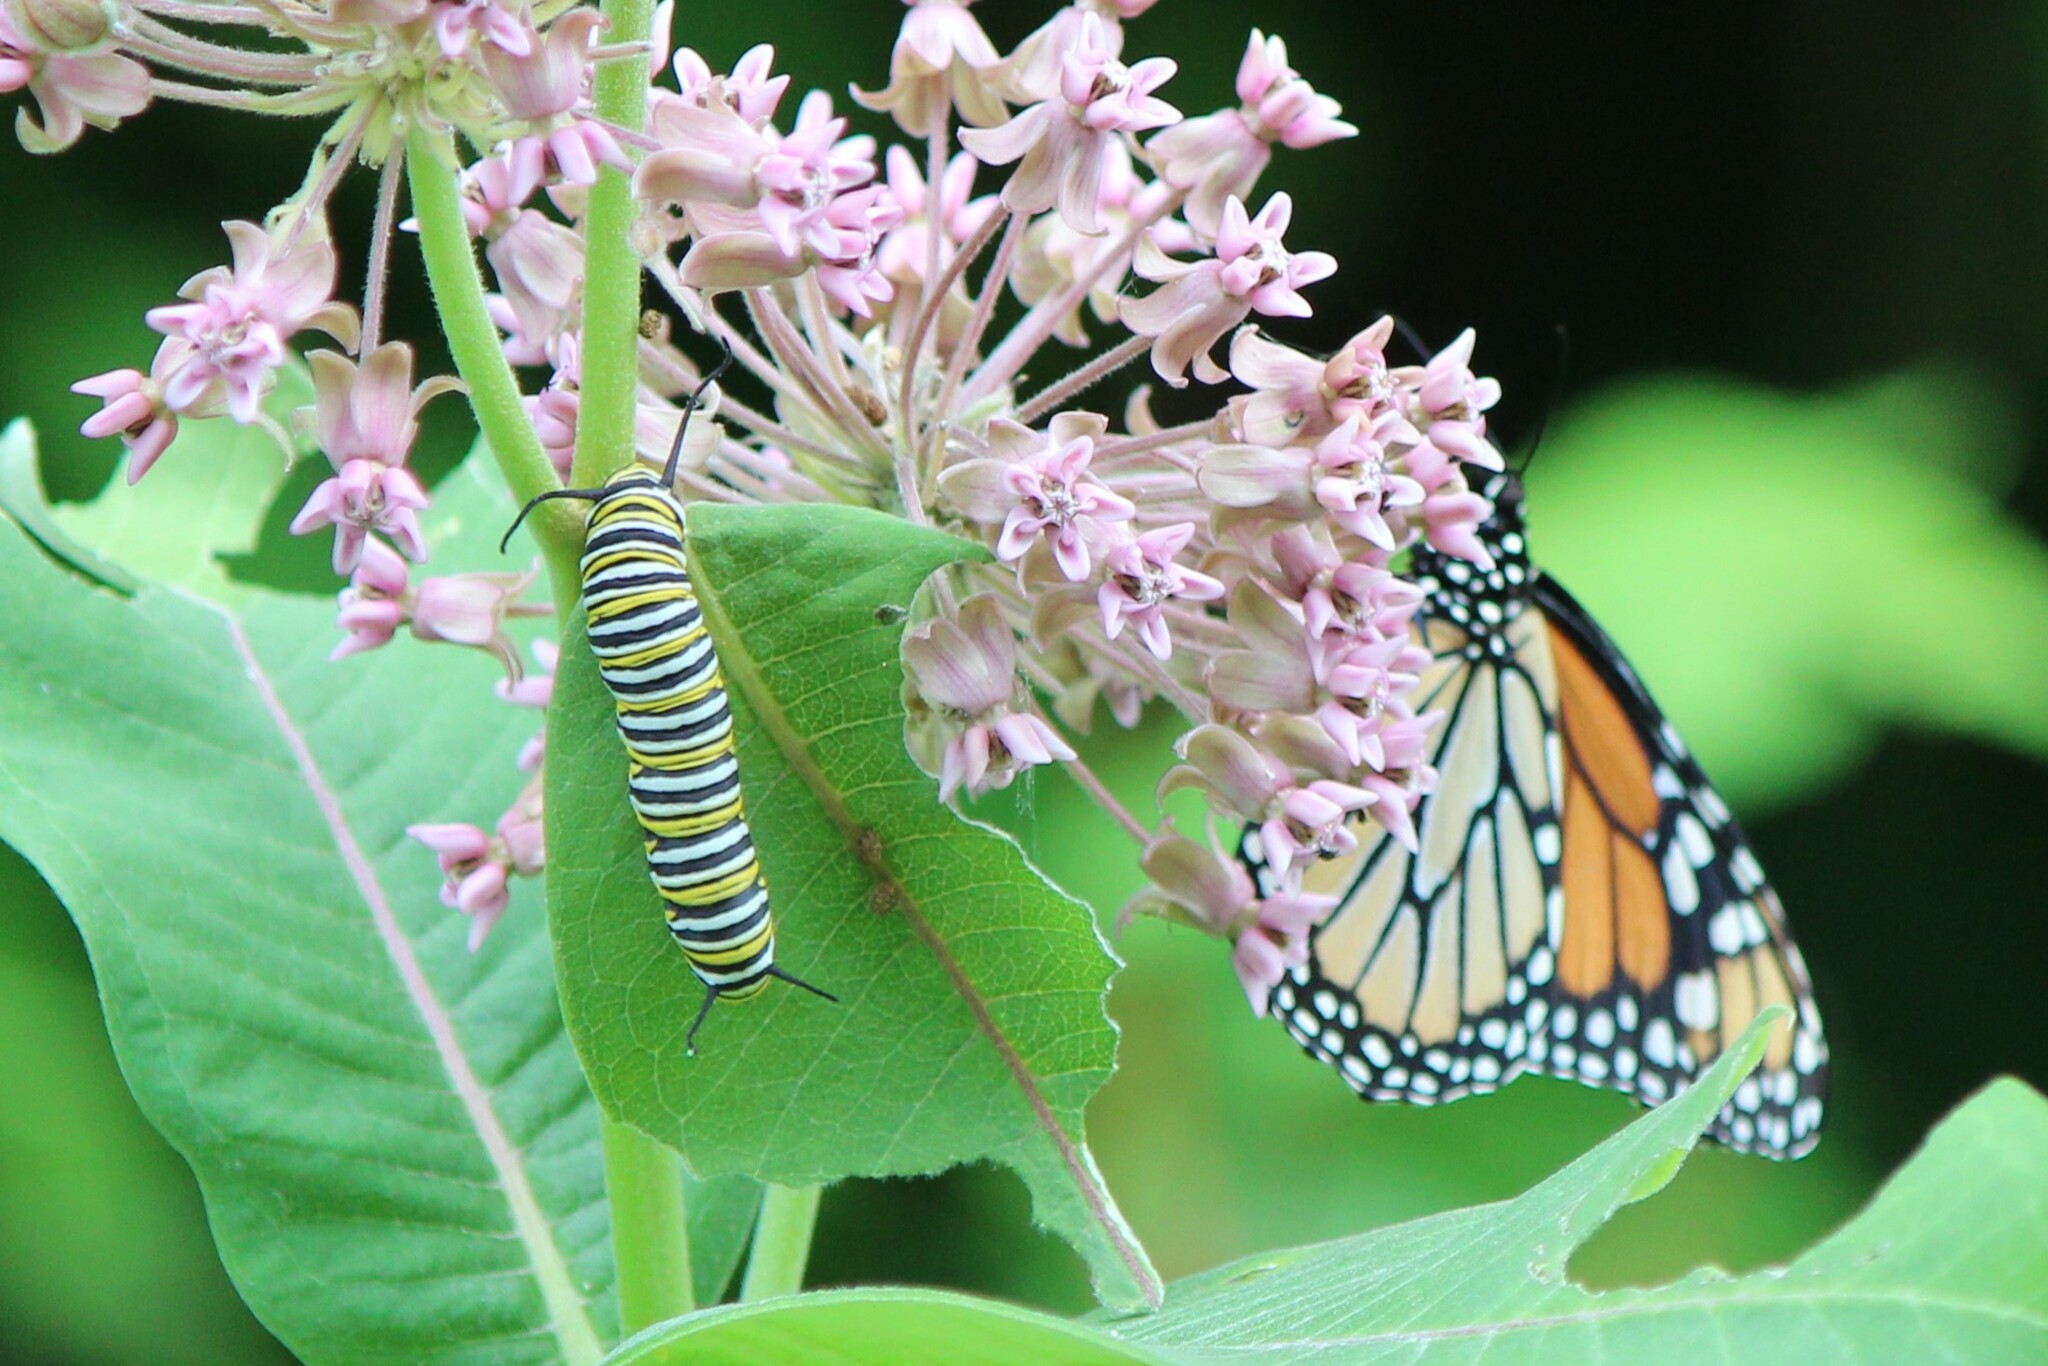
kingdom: Animalia
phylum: Arthropoda
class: Insecta
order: Lepidoptera
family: Nymphalidae
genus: Danaus
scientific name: Danaus plexippus
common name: Monarch
